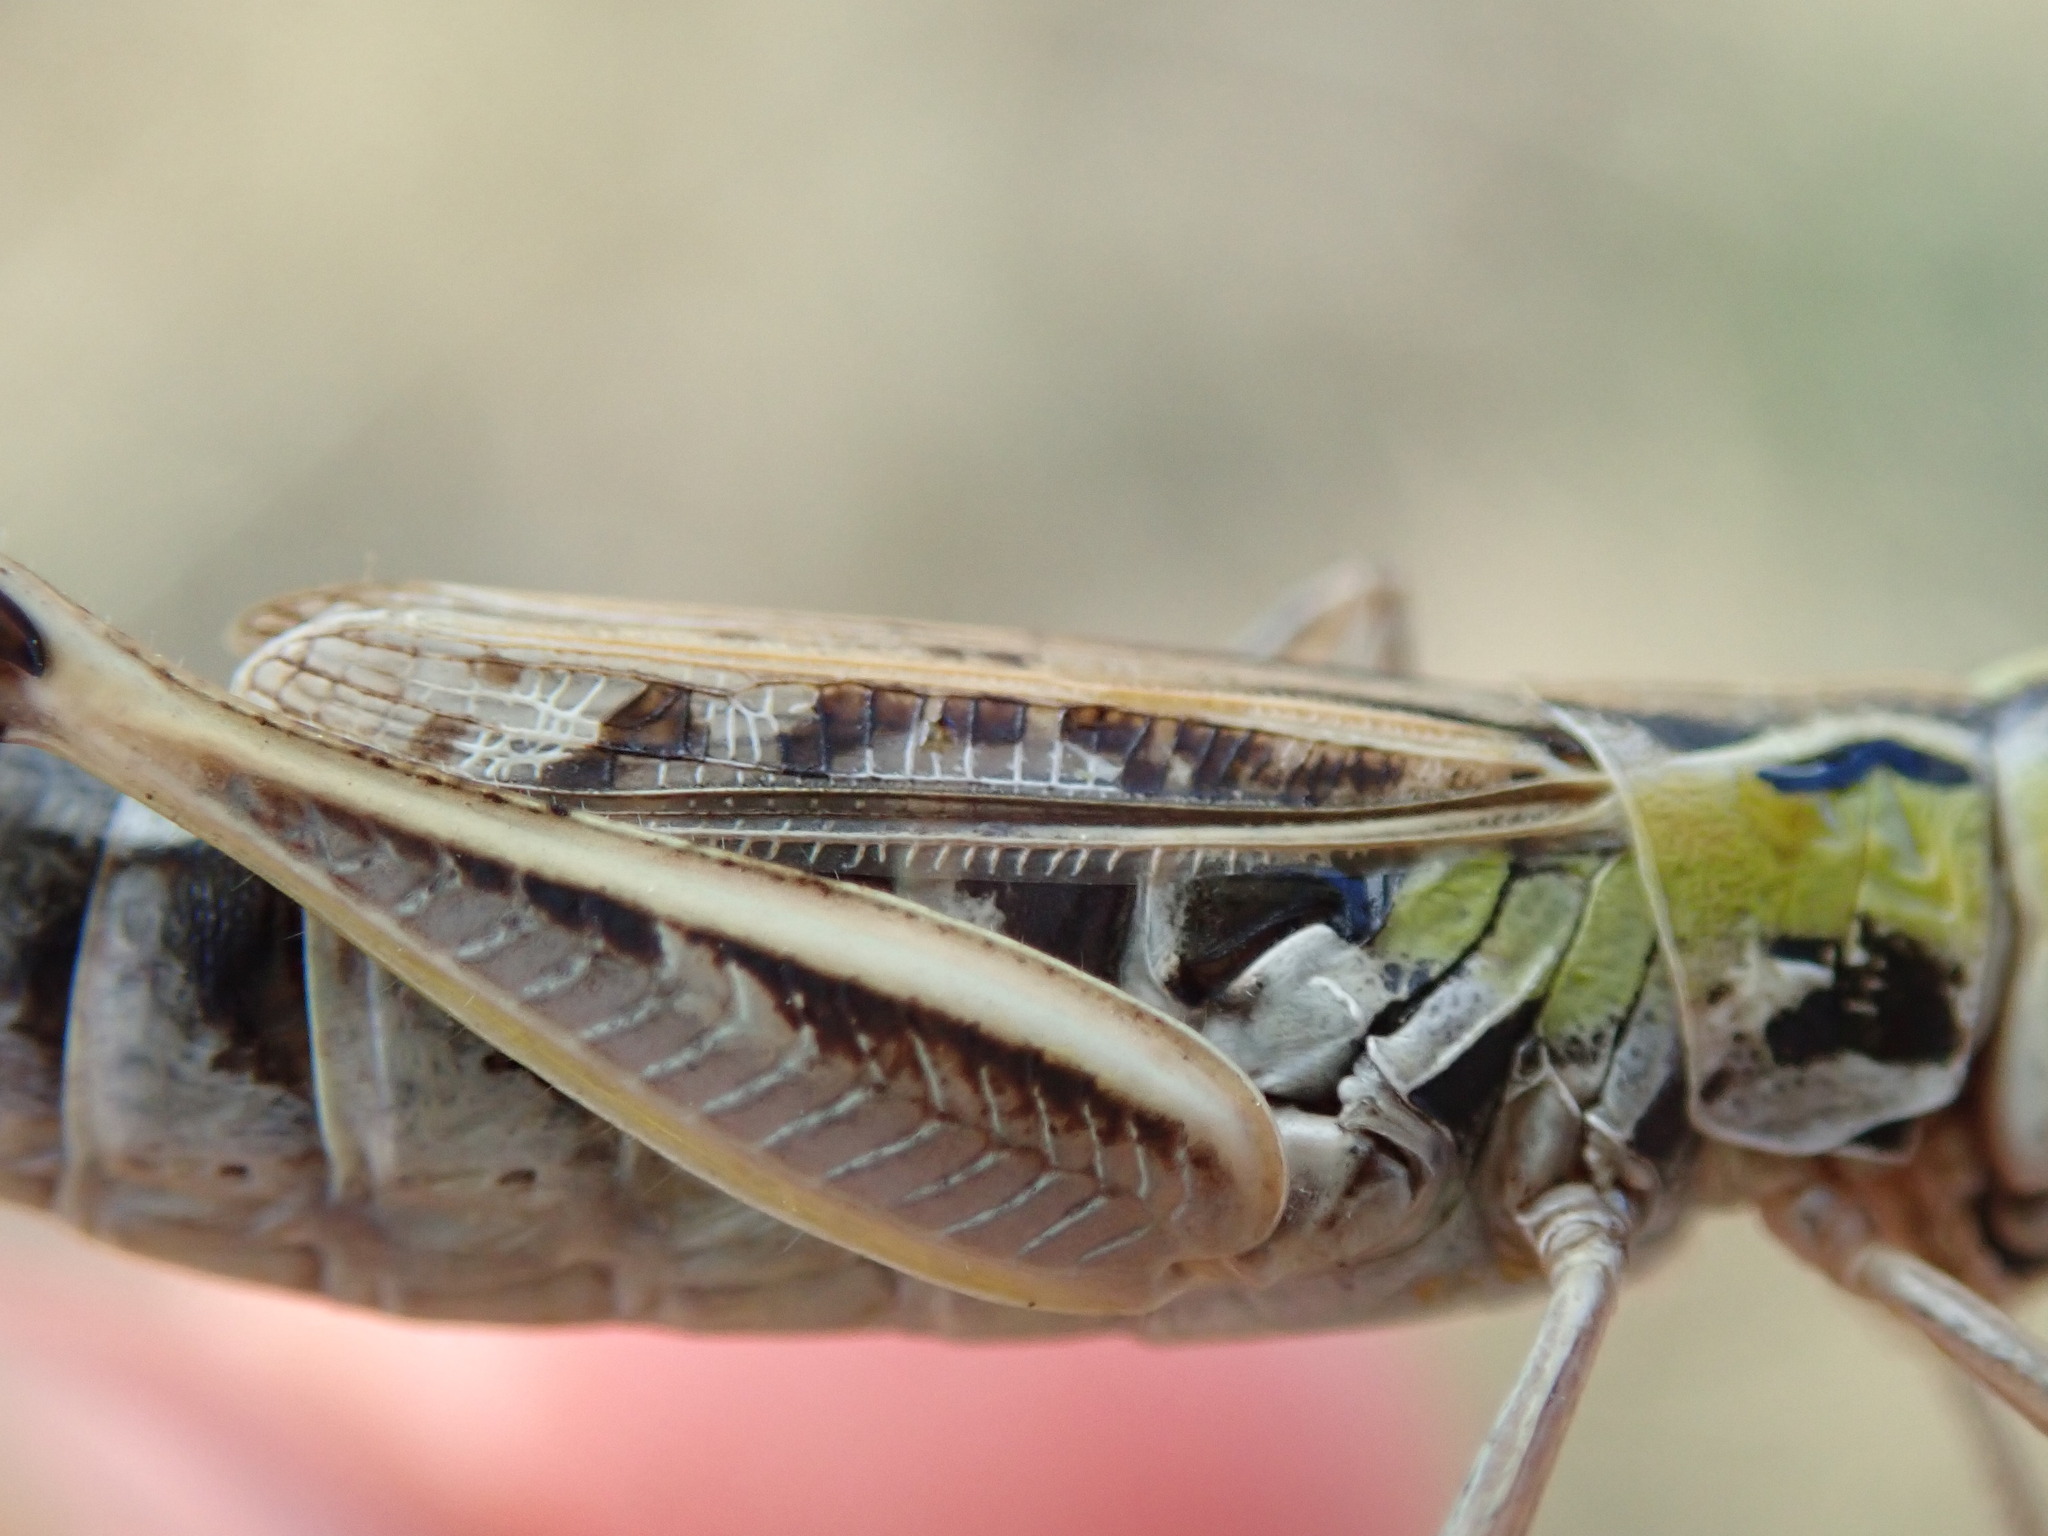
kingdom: Animalia
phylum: Arthropoda
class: Insecta
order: Orthoptera
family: Acrididae
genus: Stenobothrus
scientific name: Stenobothrus nigromaculatus
